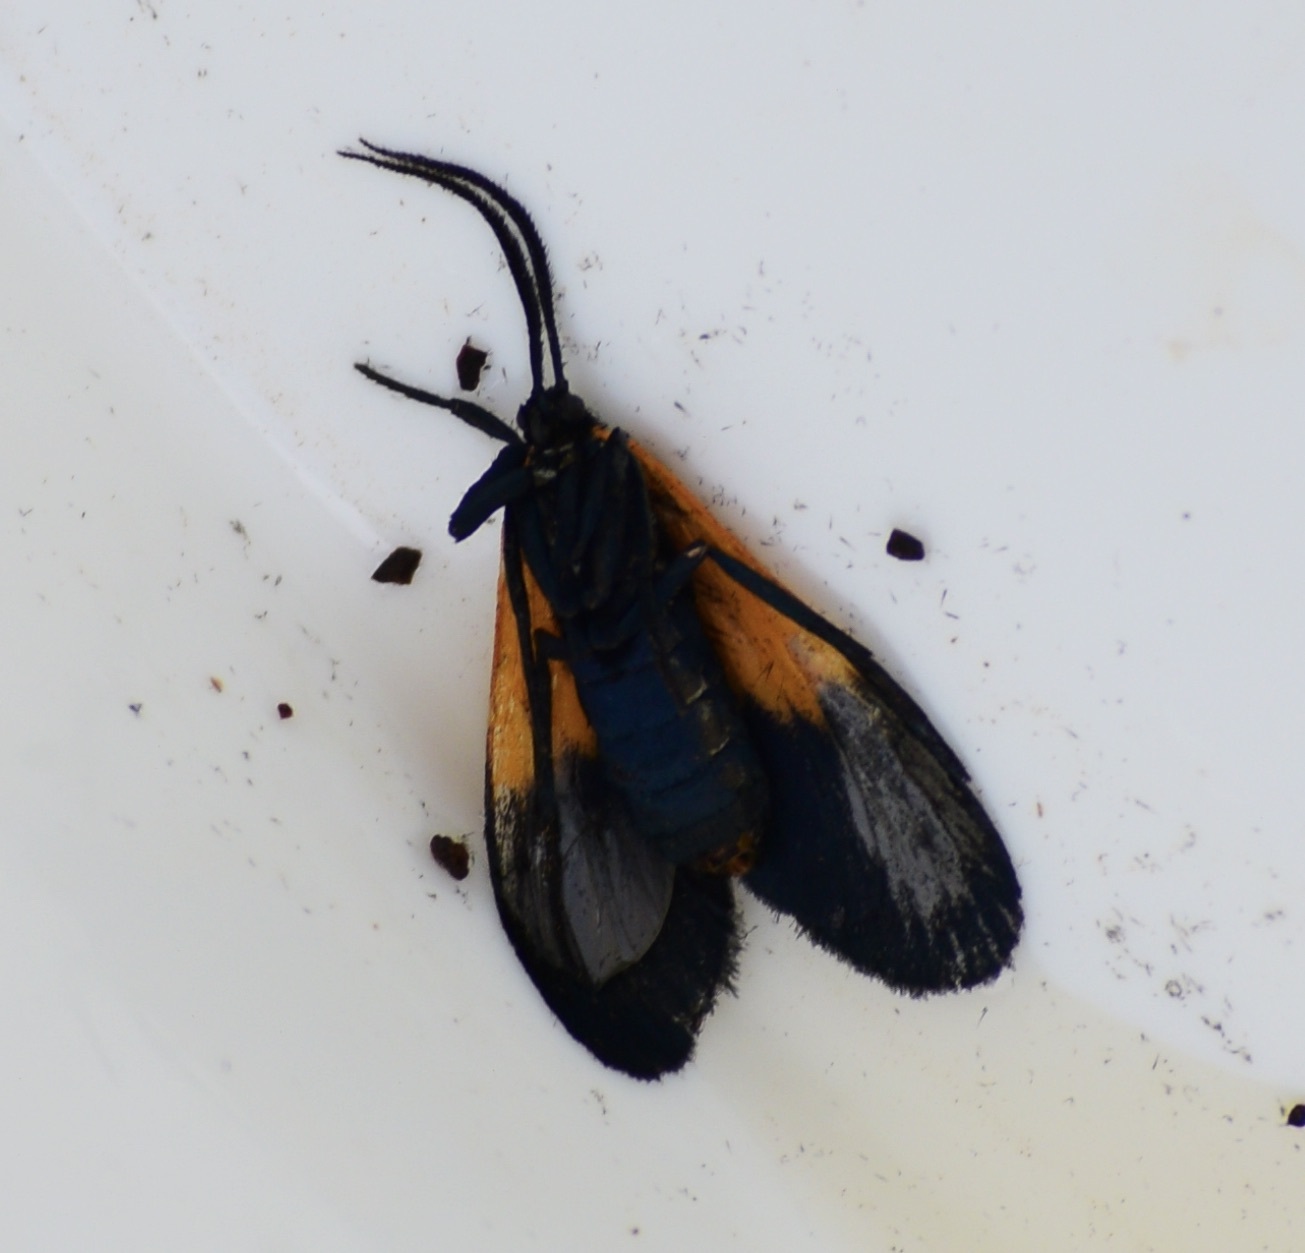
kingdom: Animalia
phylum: Arthropoda
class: Insecta
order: Lepidoptera
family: Erebidae
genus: Lycomorpha
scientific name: Lycomorpha pholus
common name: Black-and-yellow lichen moth
